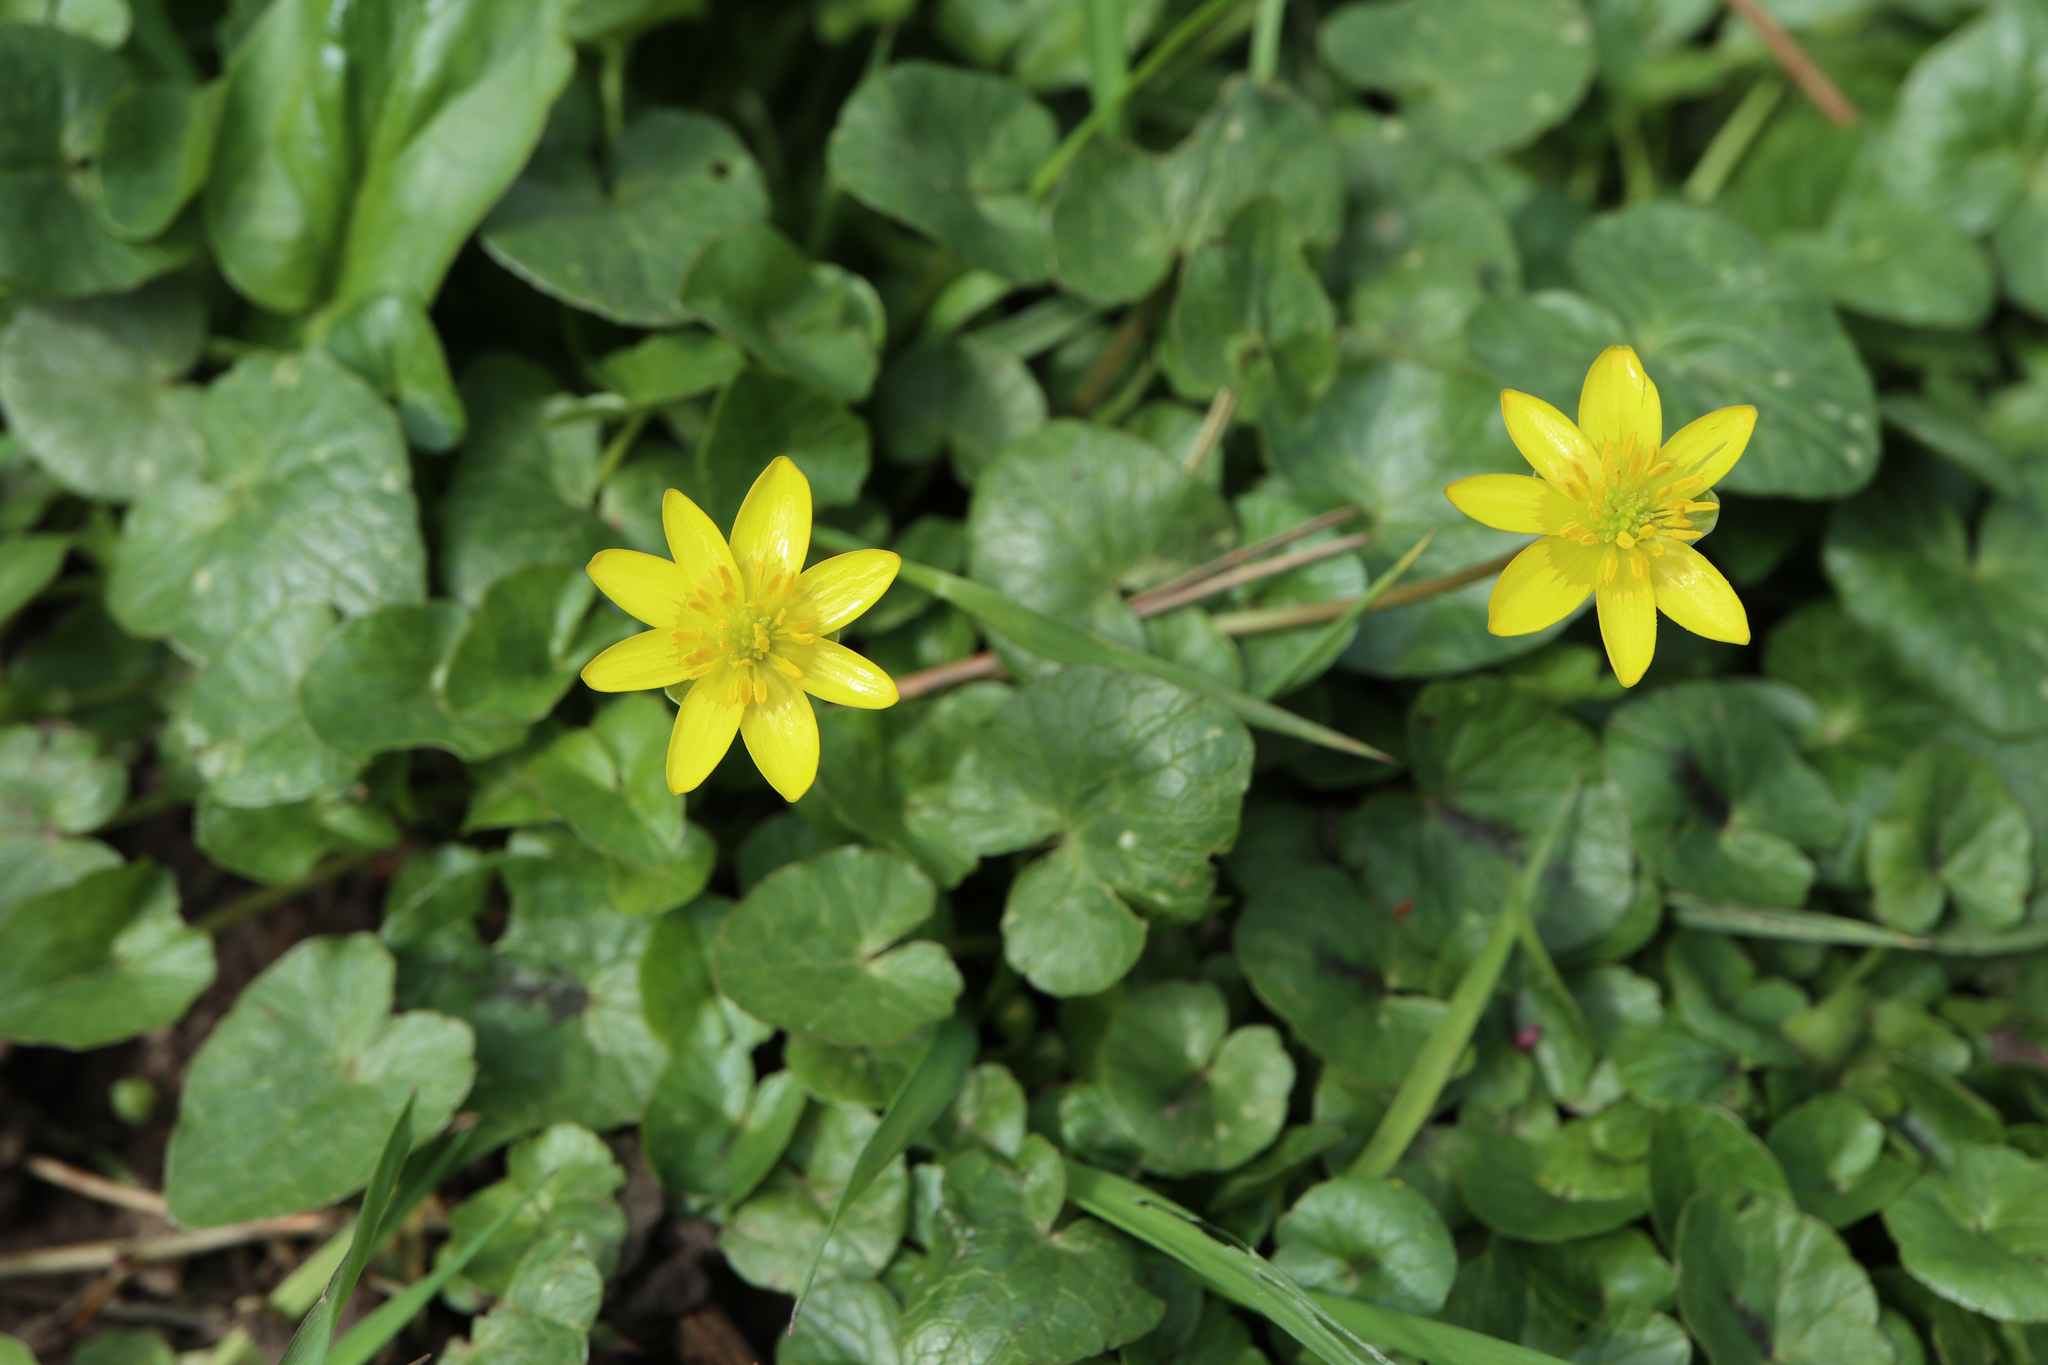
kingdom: Plantae
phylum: Tracheophyta
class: Magnoliopsida
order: Ranunculales
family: Ranunculaceae
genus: Ficaria
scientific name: Ficaria verna
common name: Lesser celandine
